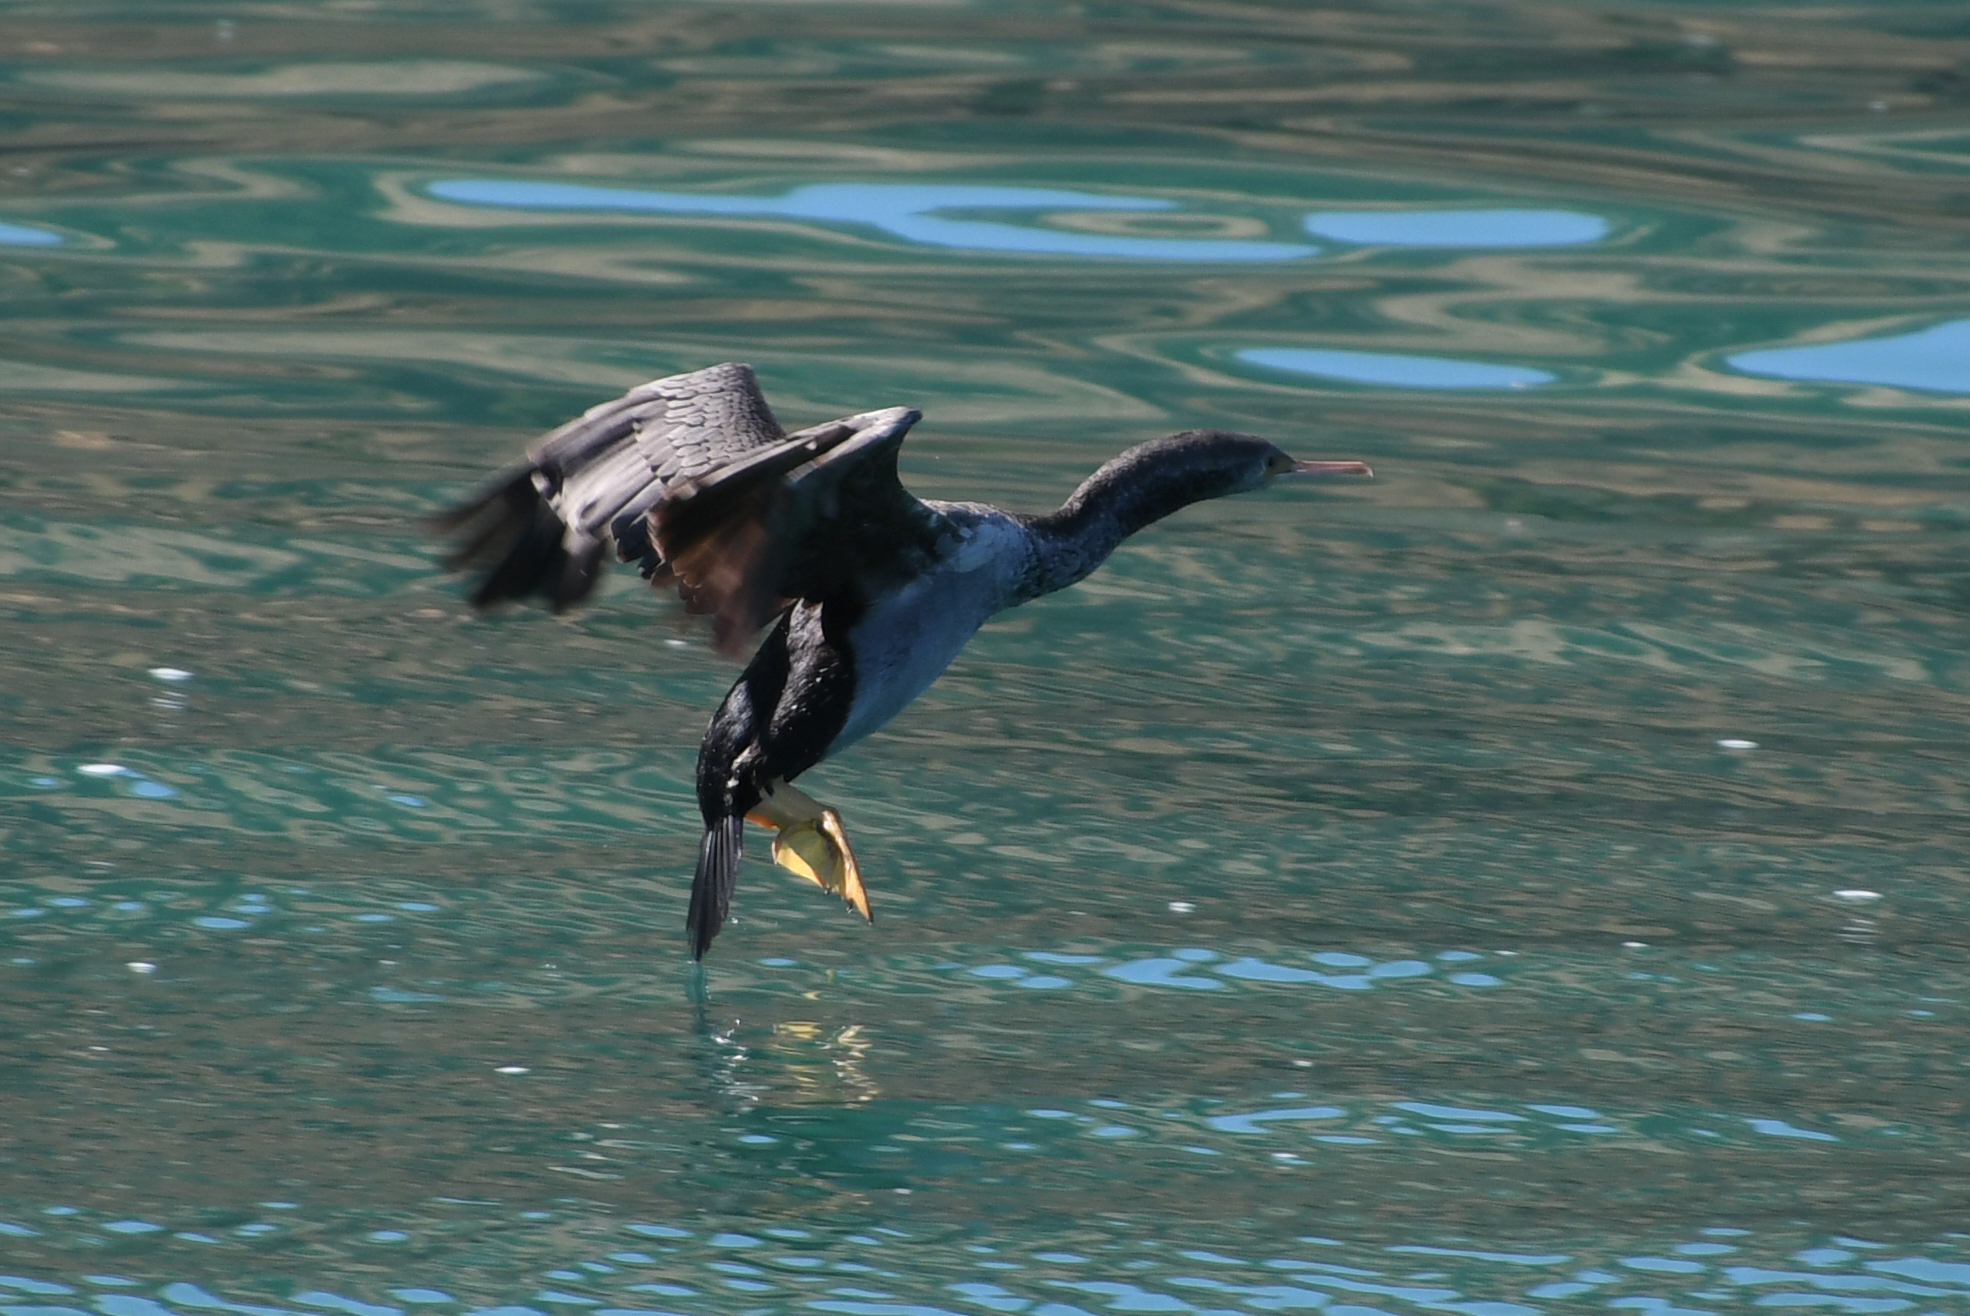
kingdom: Animalia
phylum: Chordata
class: Aves
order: Suliformes
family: Phalacrocoracidae
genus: Phalacrocorax
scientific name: Phalacrocorax punctatus
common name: Spotted shag
